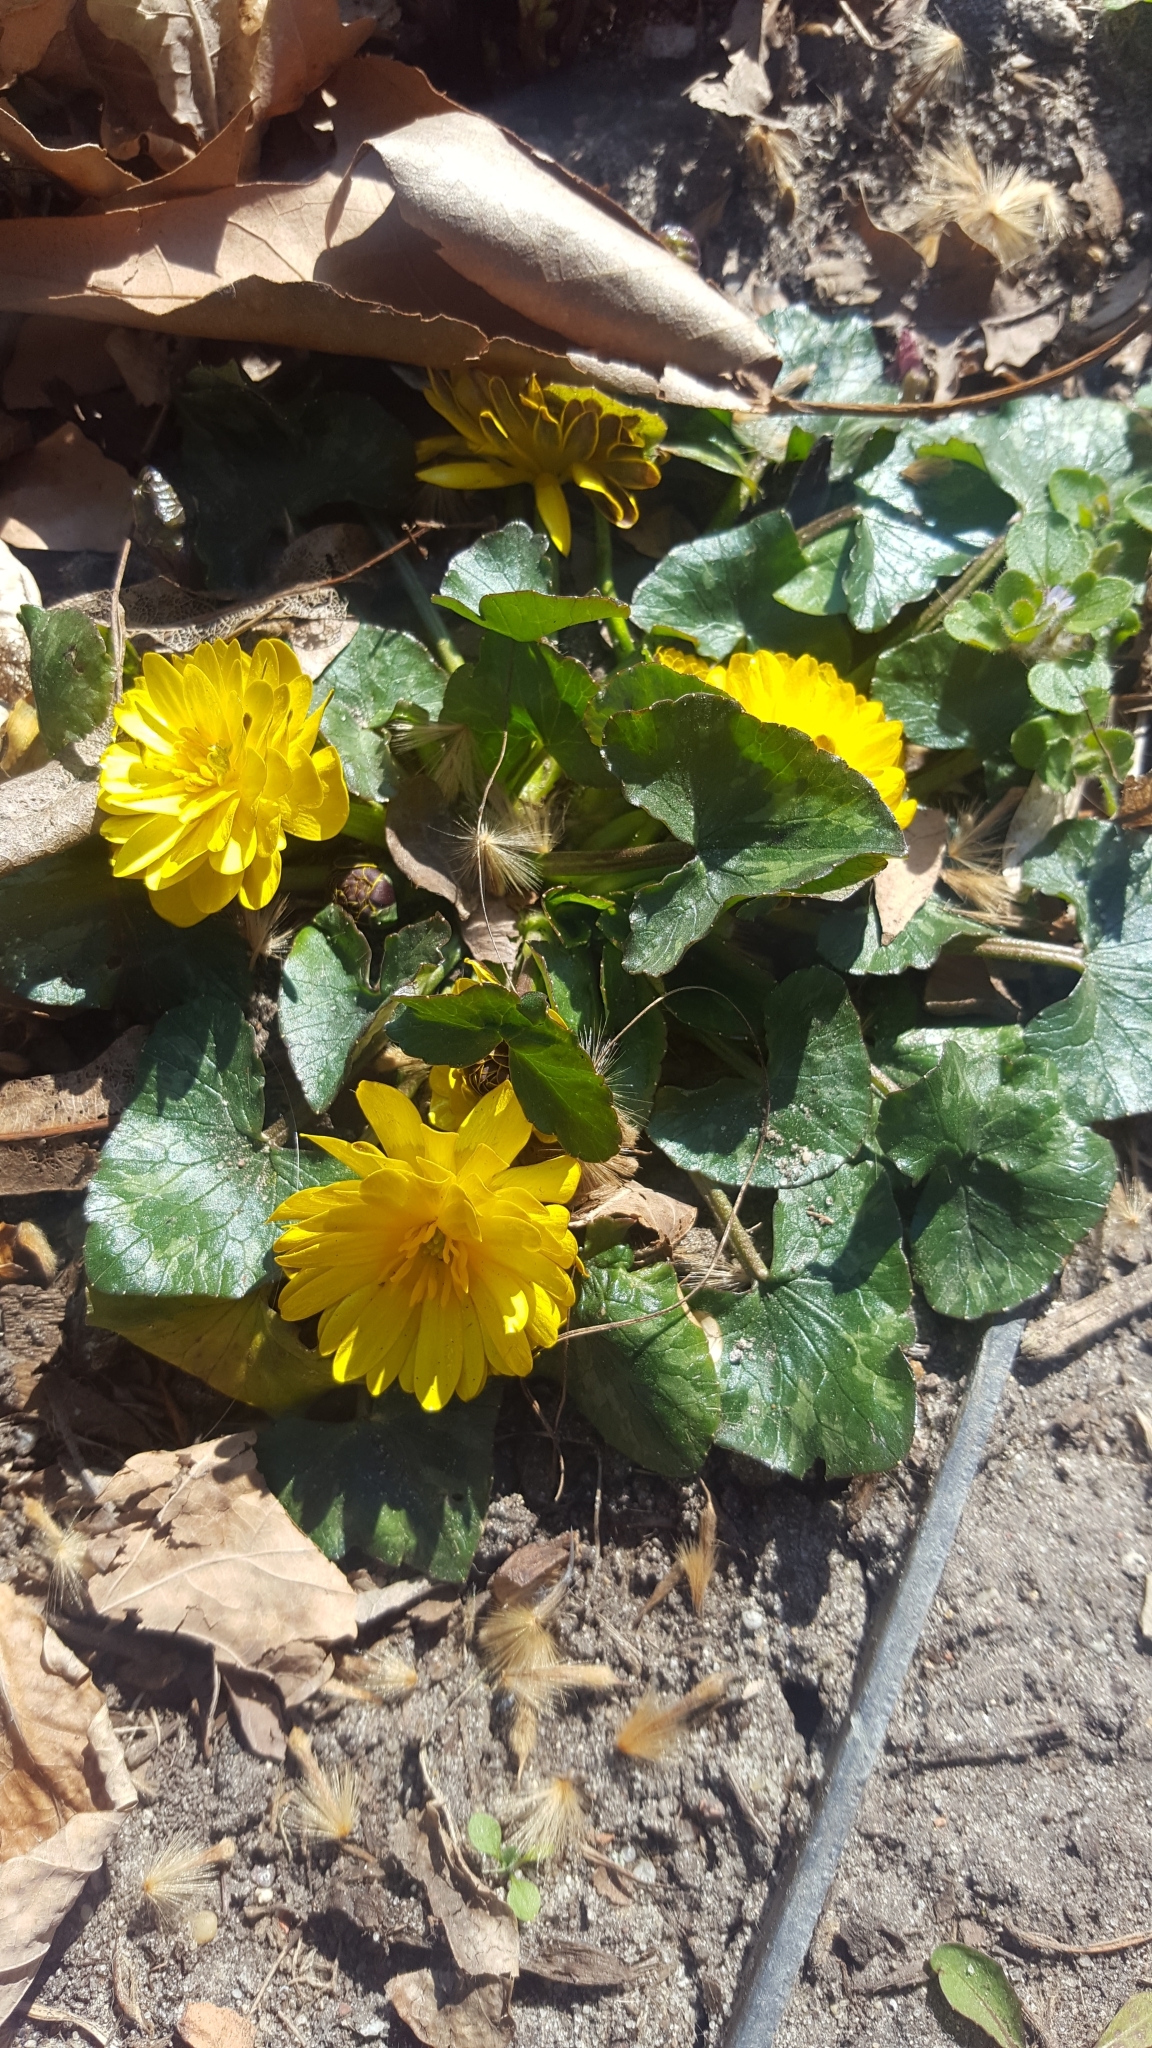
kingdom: Plantae
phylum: Tracheophyta
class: Magnoliopsida
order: Ranunculales
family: Ranunculaceae
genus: Ficaria
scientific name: Ficaria verna
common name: Lesser celandine
